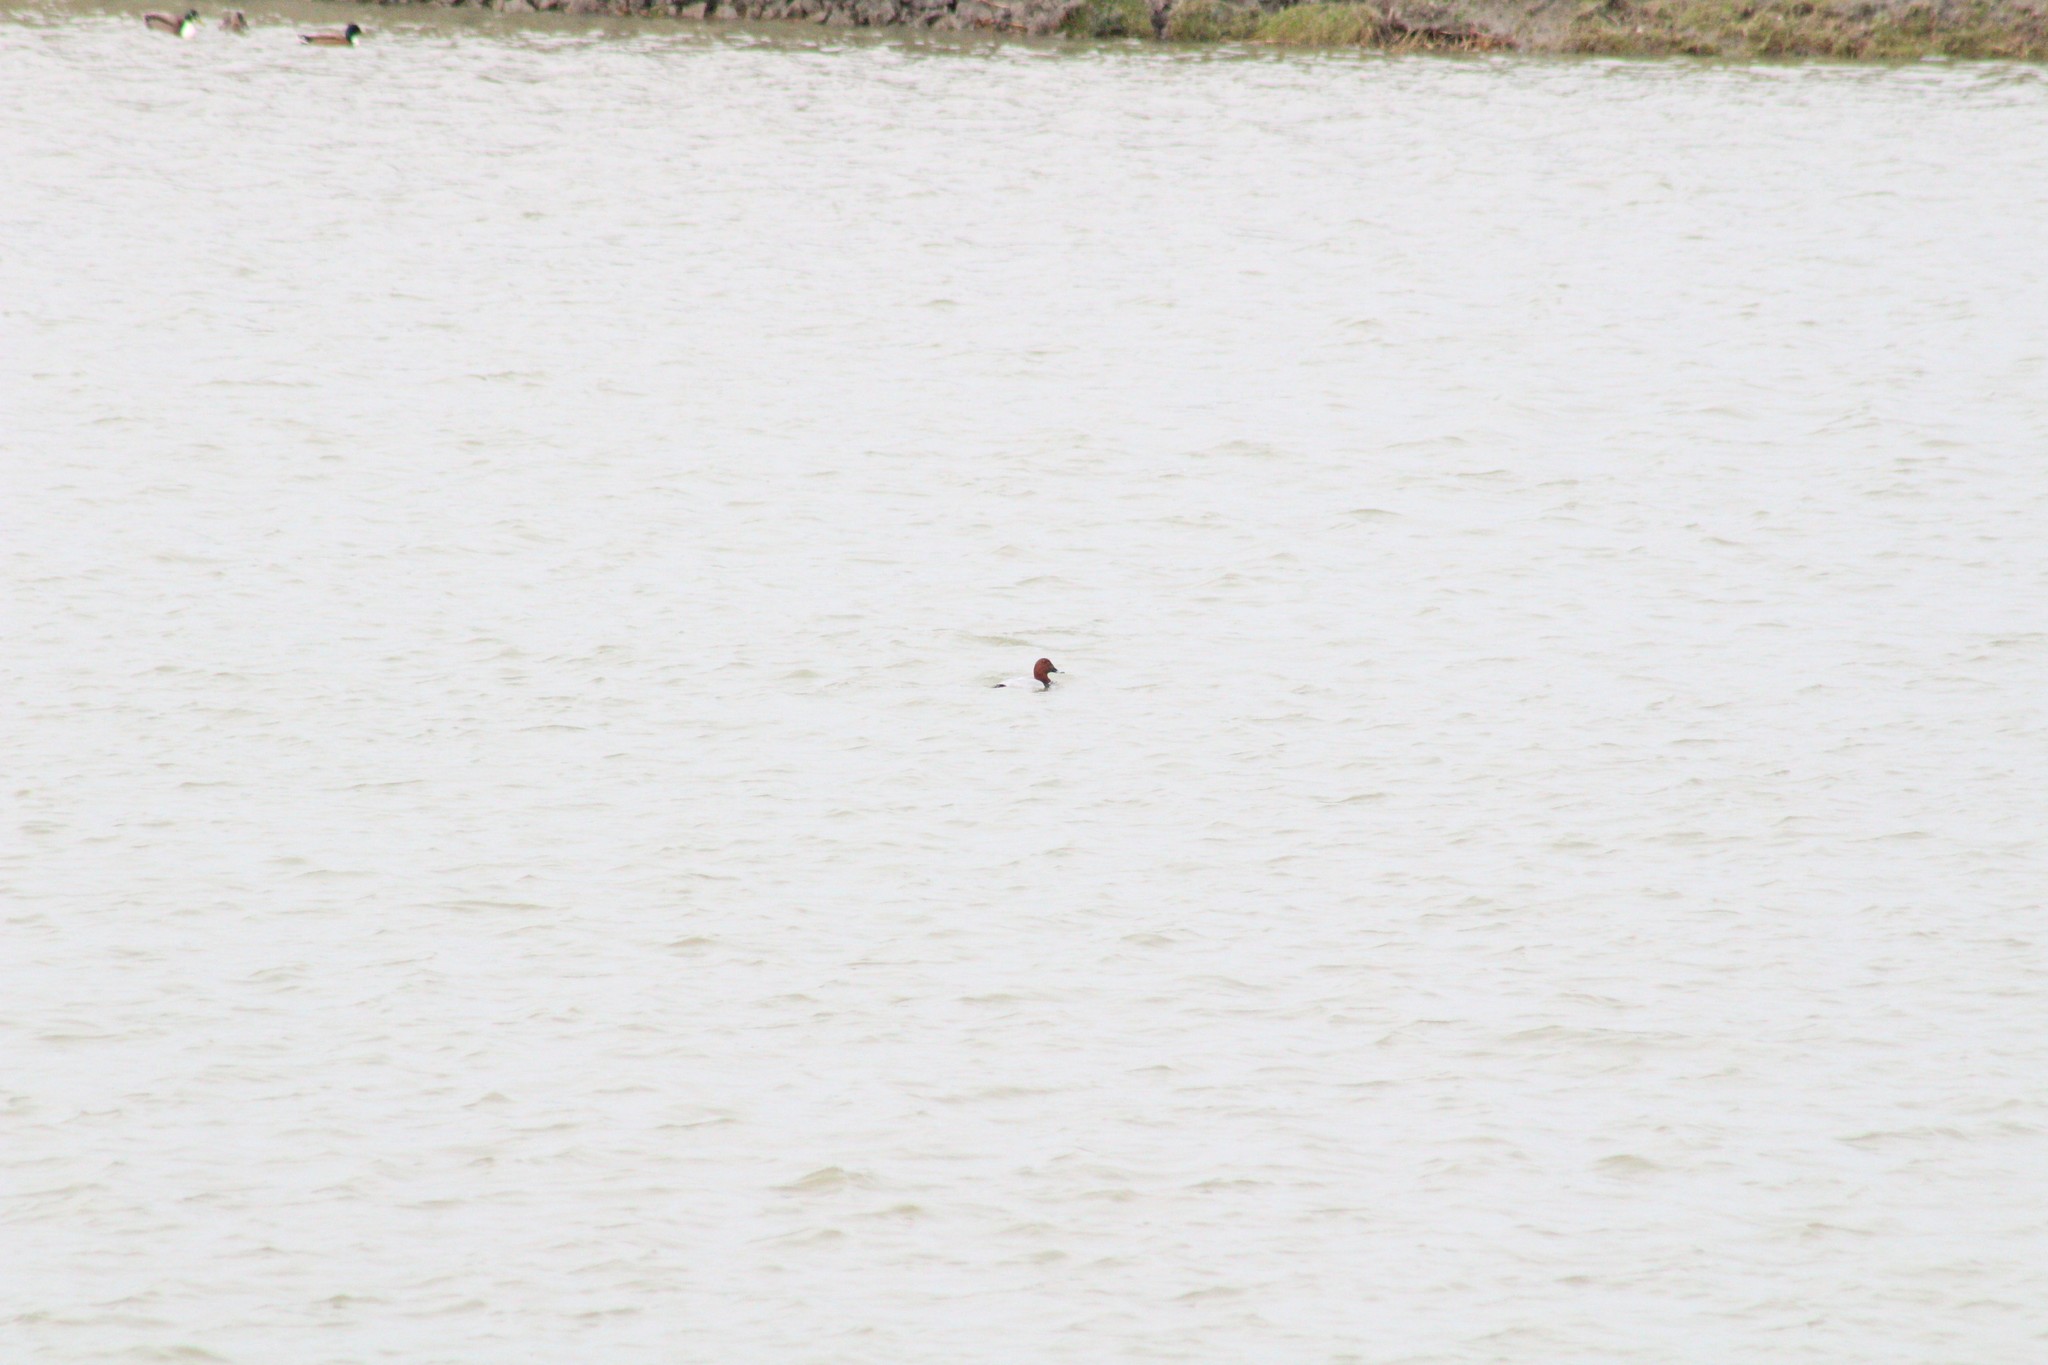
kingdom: Animalia
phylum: Chordata
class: Aves
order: Anseriformes
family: Anatidae
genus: Aythya
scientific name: Aythya ferina
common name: Common pochard
